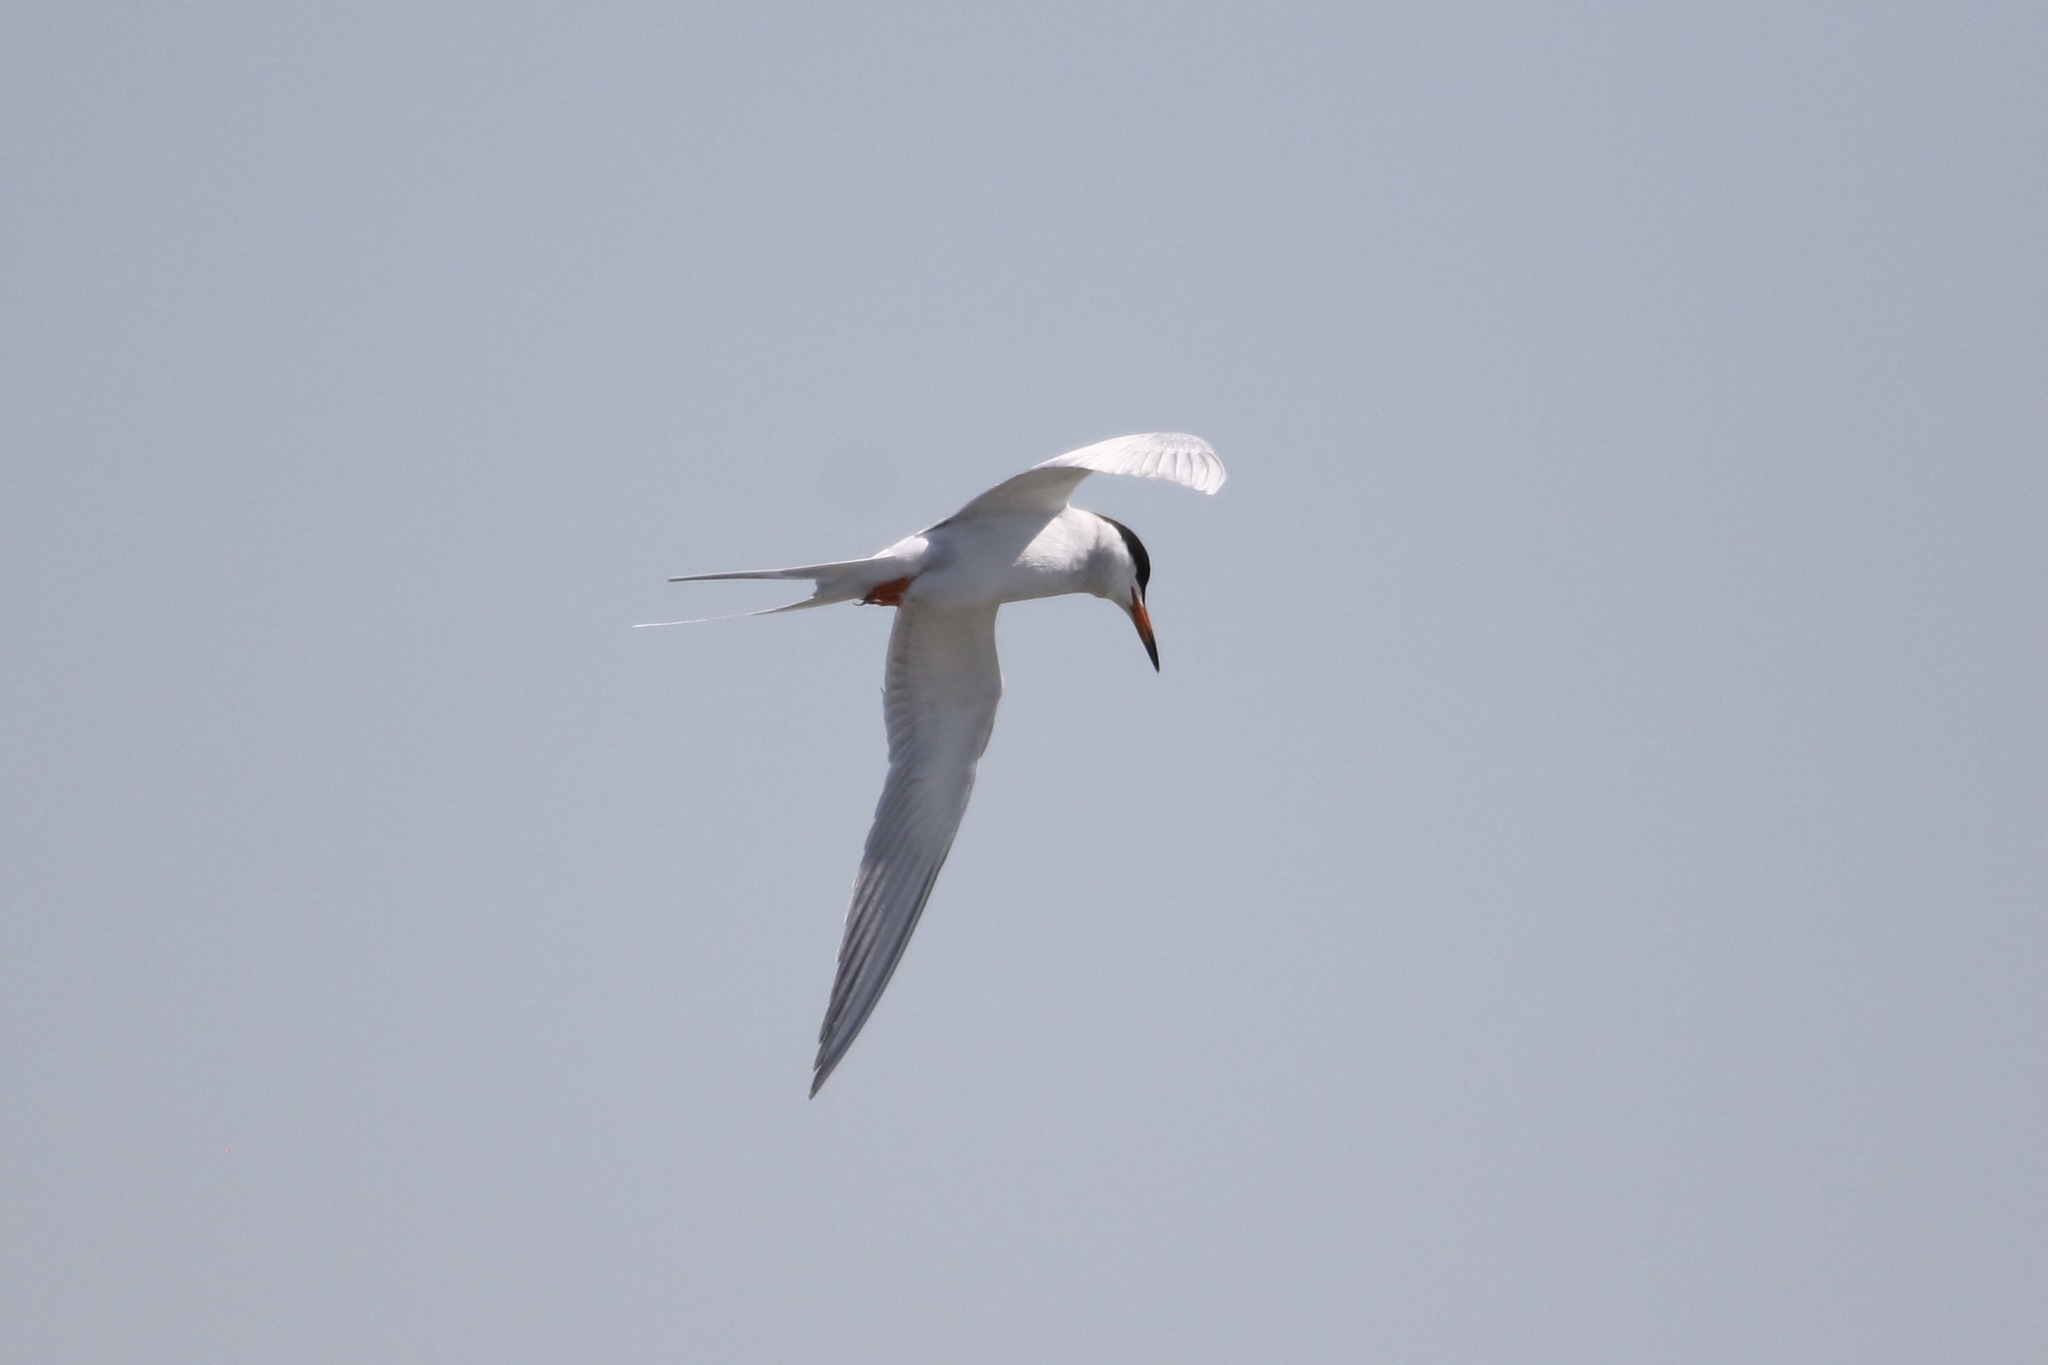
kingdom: Animalia
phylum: Chordata
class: Aves
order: Charadriiformes
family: Laridae
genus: Sterna
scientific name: Sterna forsteri
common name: Forster's tern
